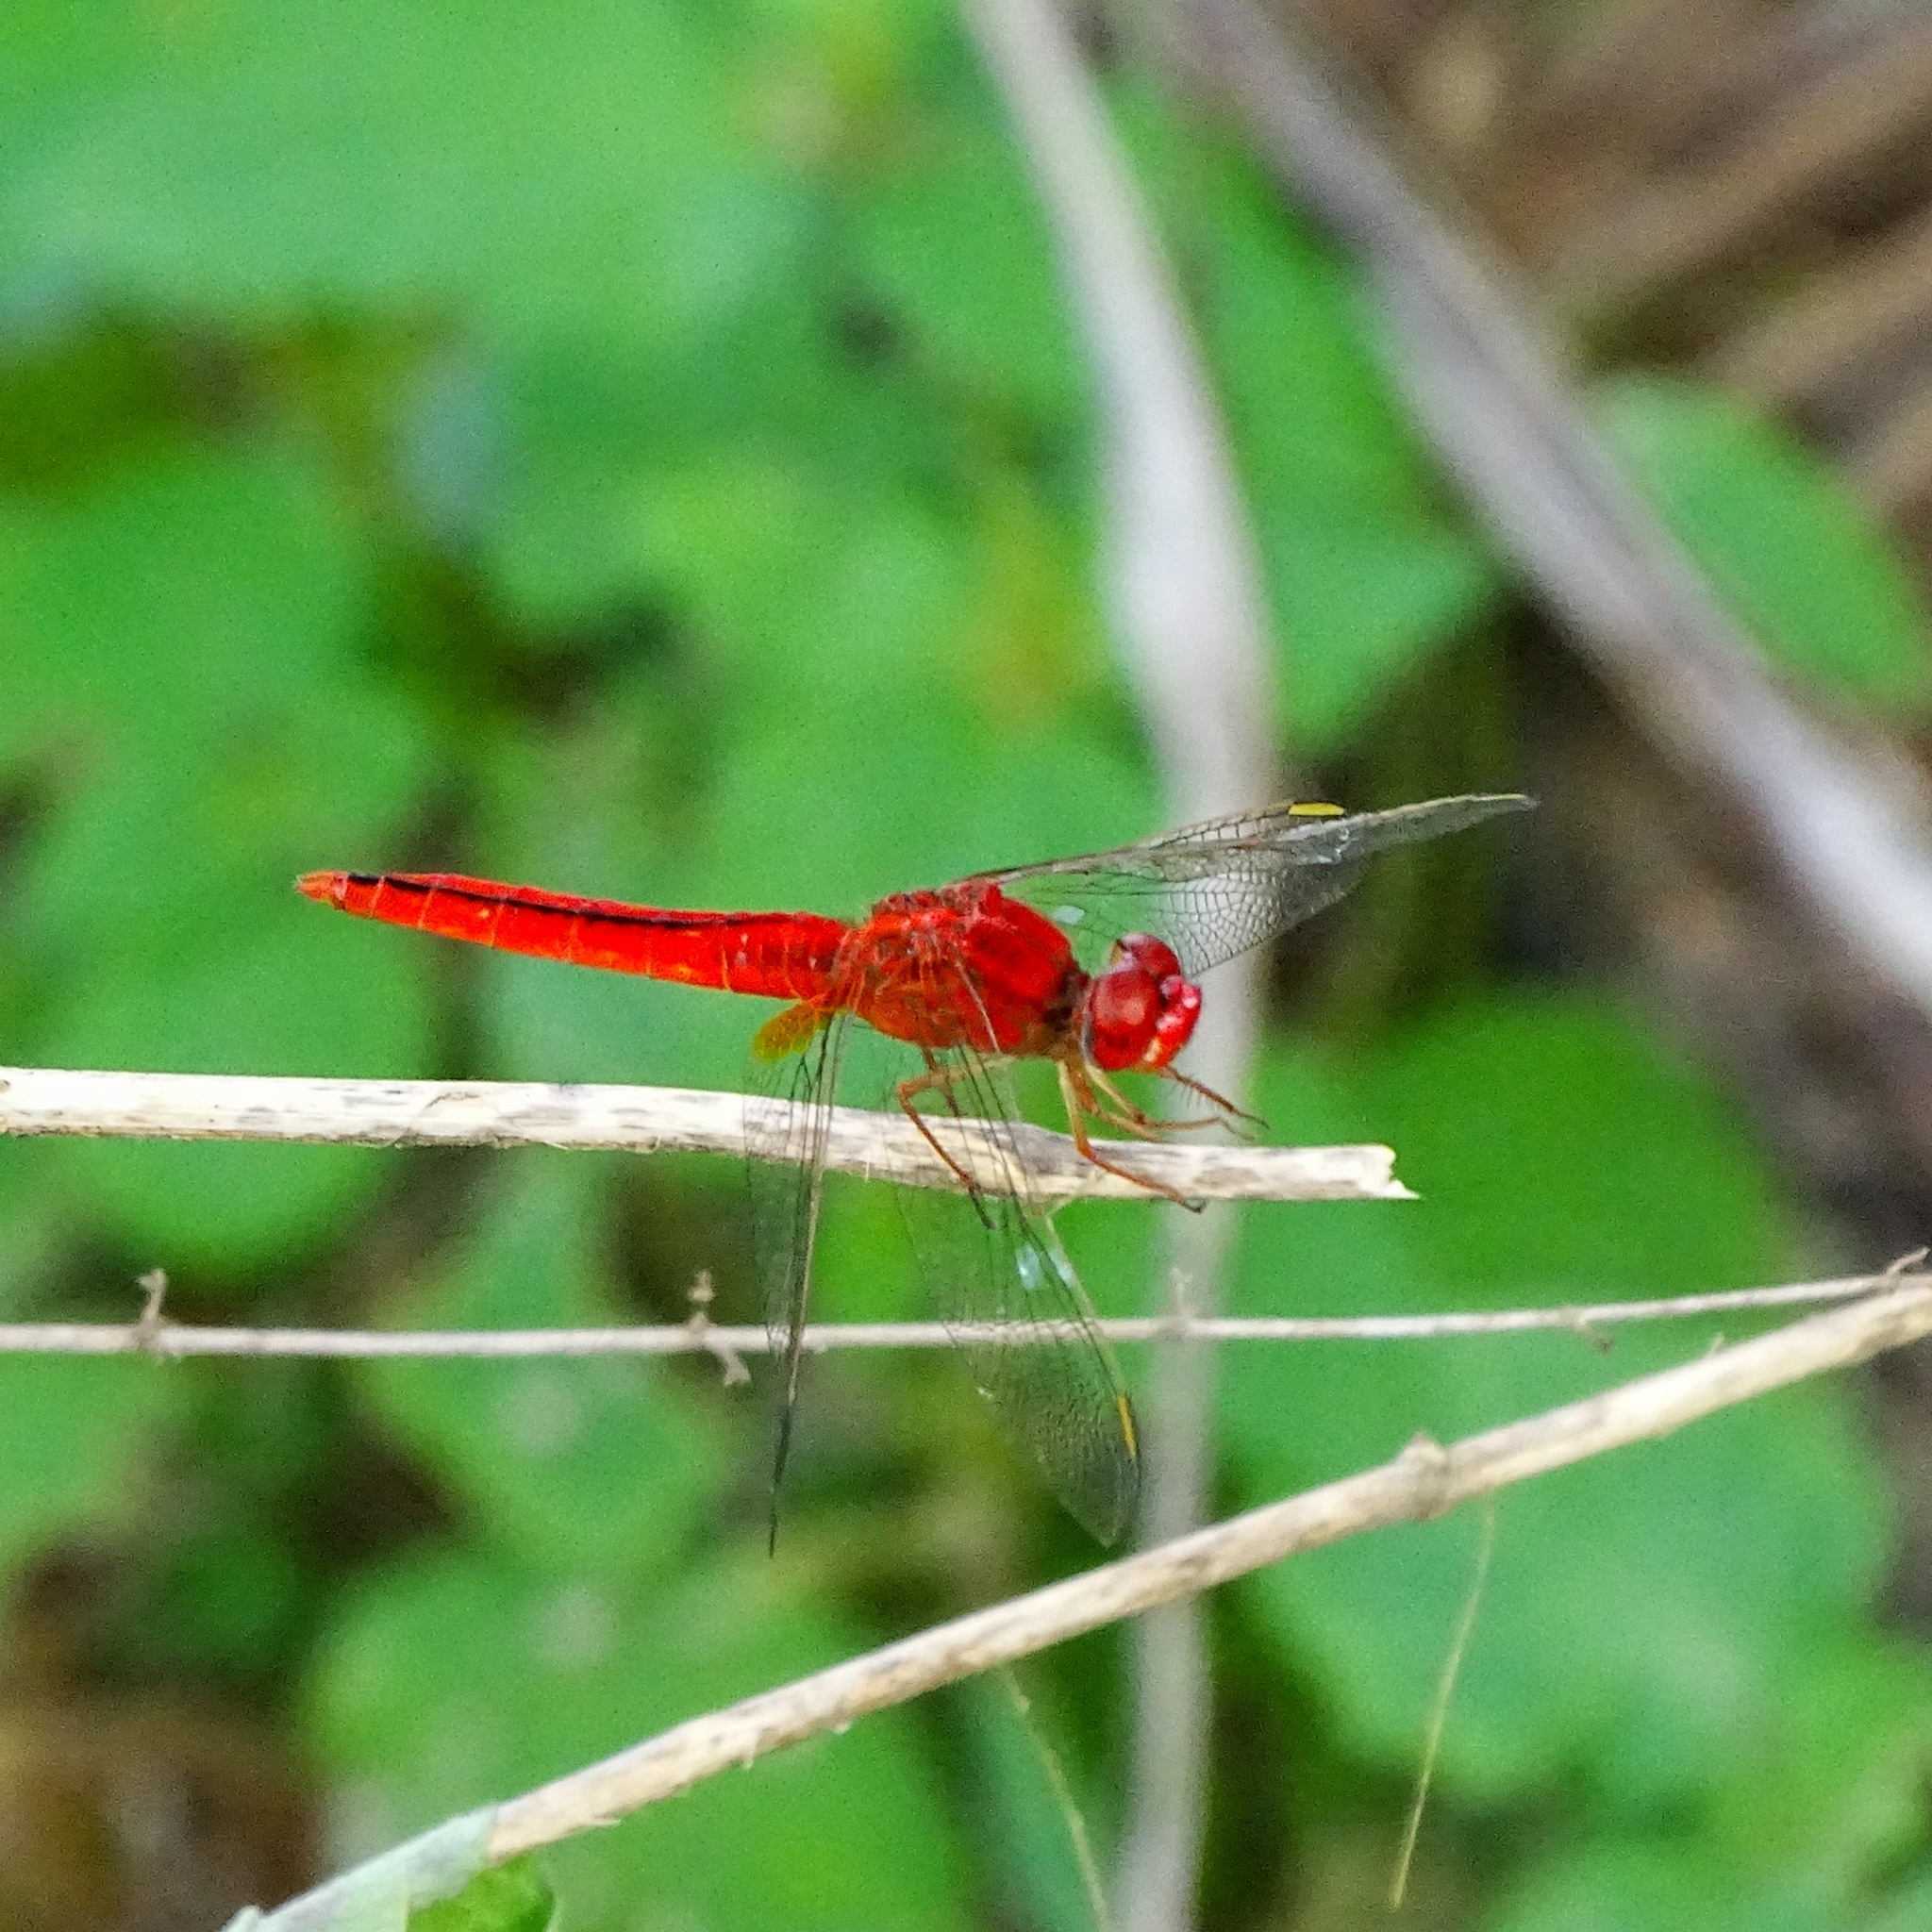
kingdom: Animalia
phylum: Arthropoda
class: Insecta
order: Odonata
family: Libellulidae
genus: Crocothemis
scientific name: Crocothemis servilia
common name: Scarlet skimmer
